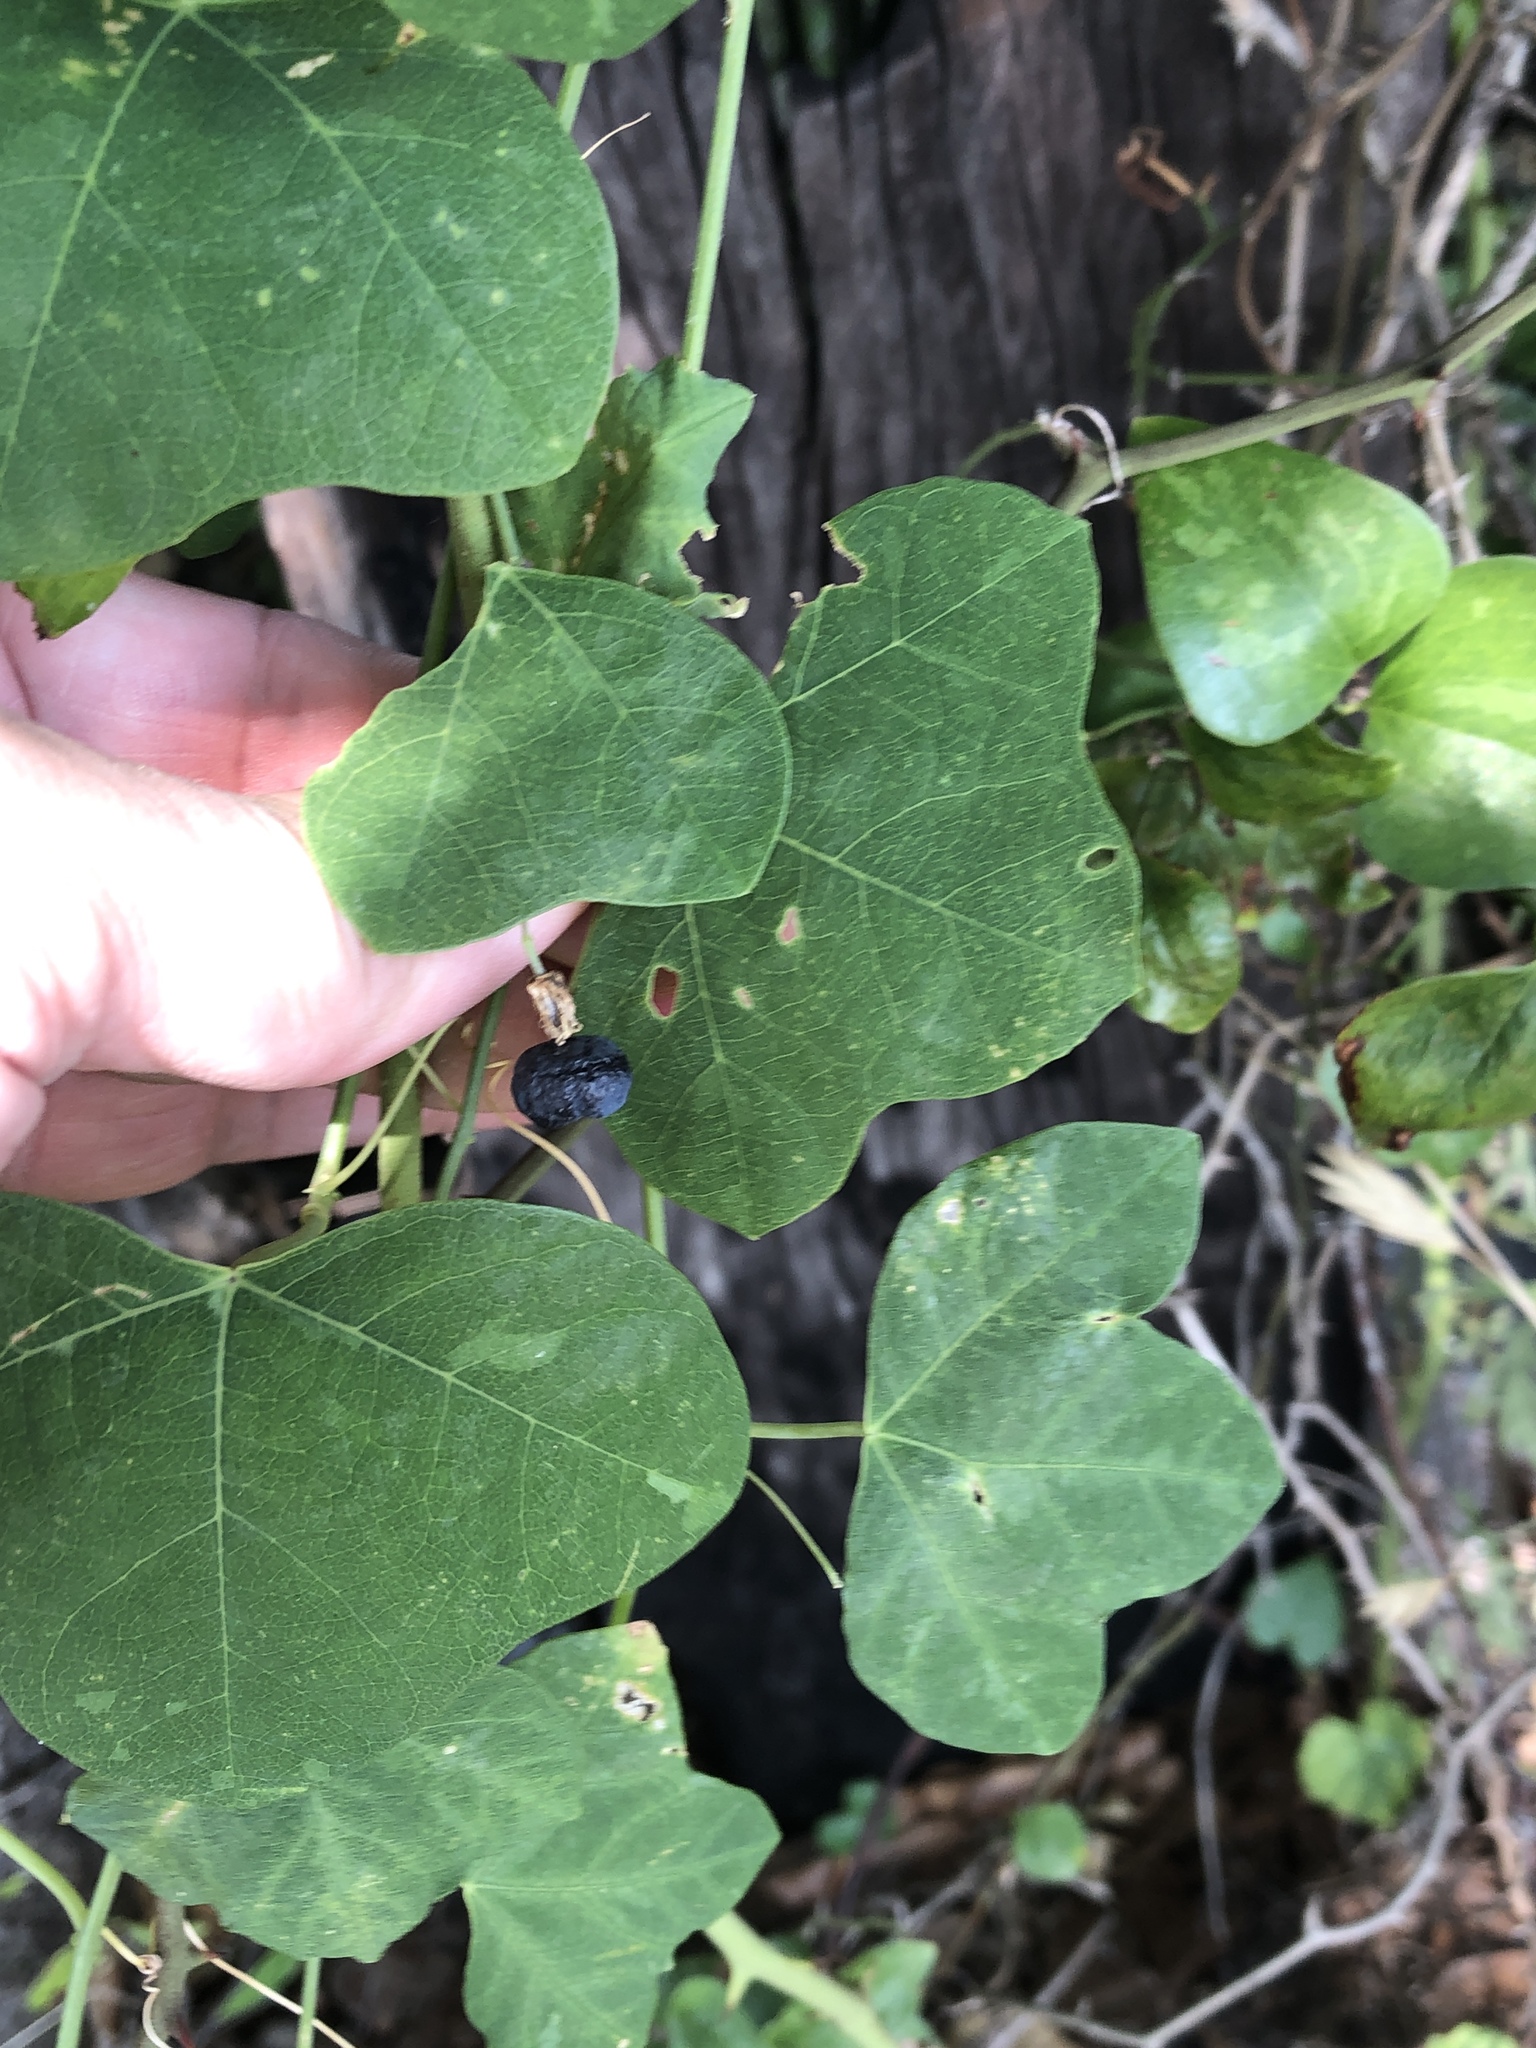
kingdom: Plantae
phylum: Tracheophyta
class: Magnoliopsida
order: Malpighiales
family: Passifloraceae
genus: Passiflora
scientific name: Passiflora lutea
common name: Yellow passionflower
